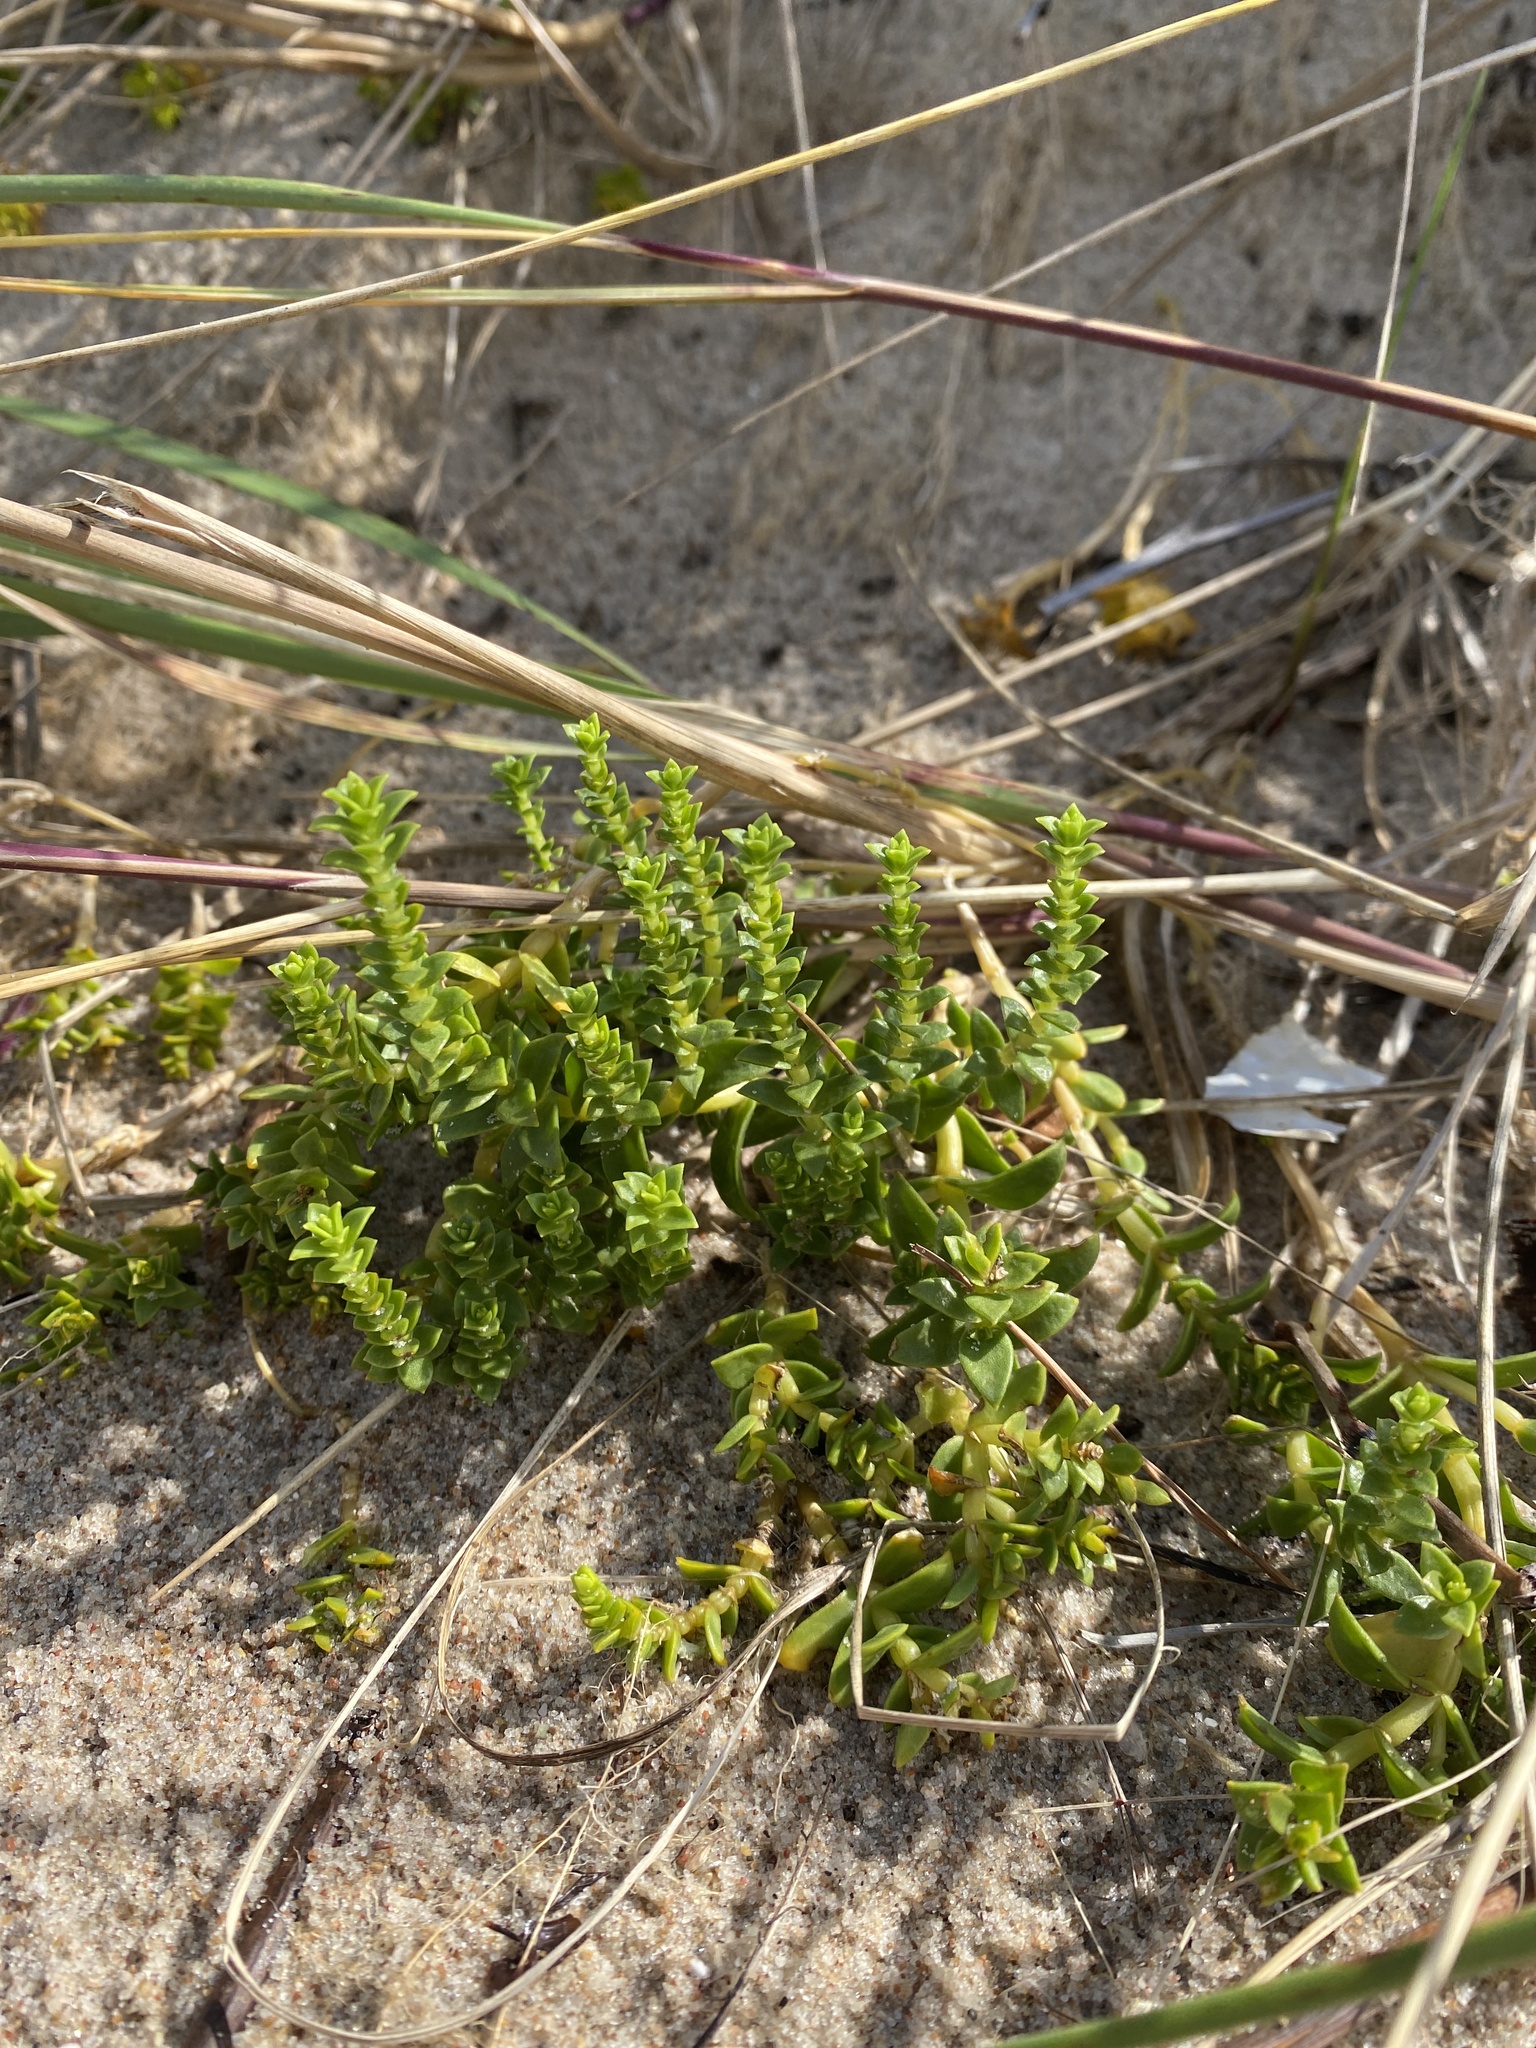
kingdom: Plantae
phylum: Tracheophyta
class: Magnoliopsida
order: Caryophyllales
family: Caryophyllaceae
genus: Honckenya
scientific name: Honckenya peploides
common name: Sea sandwort
